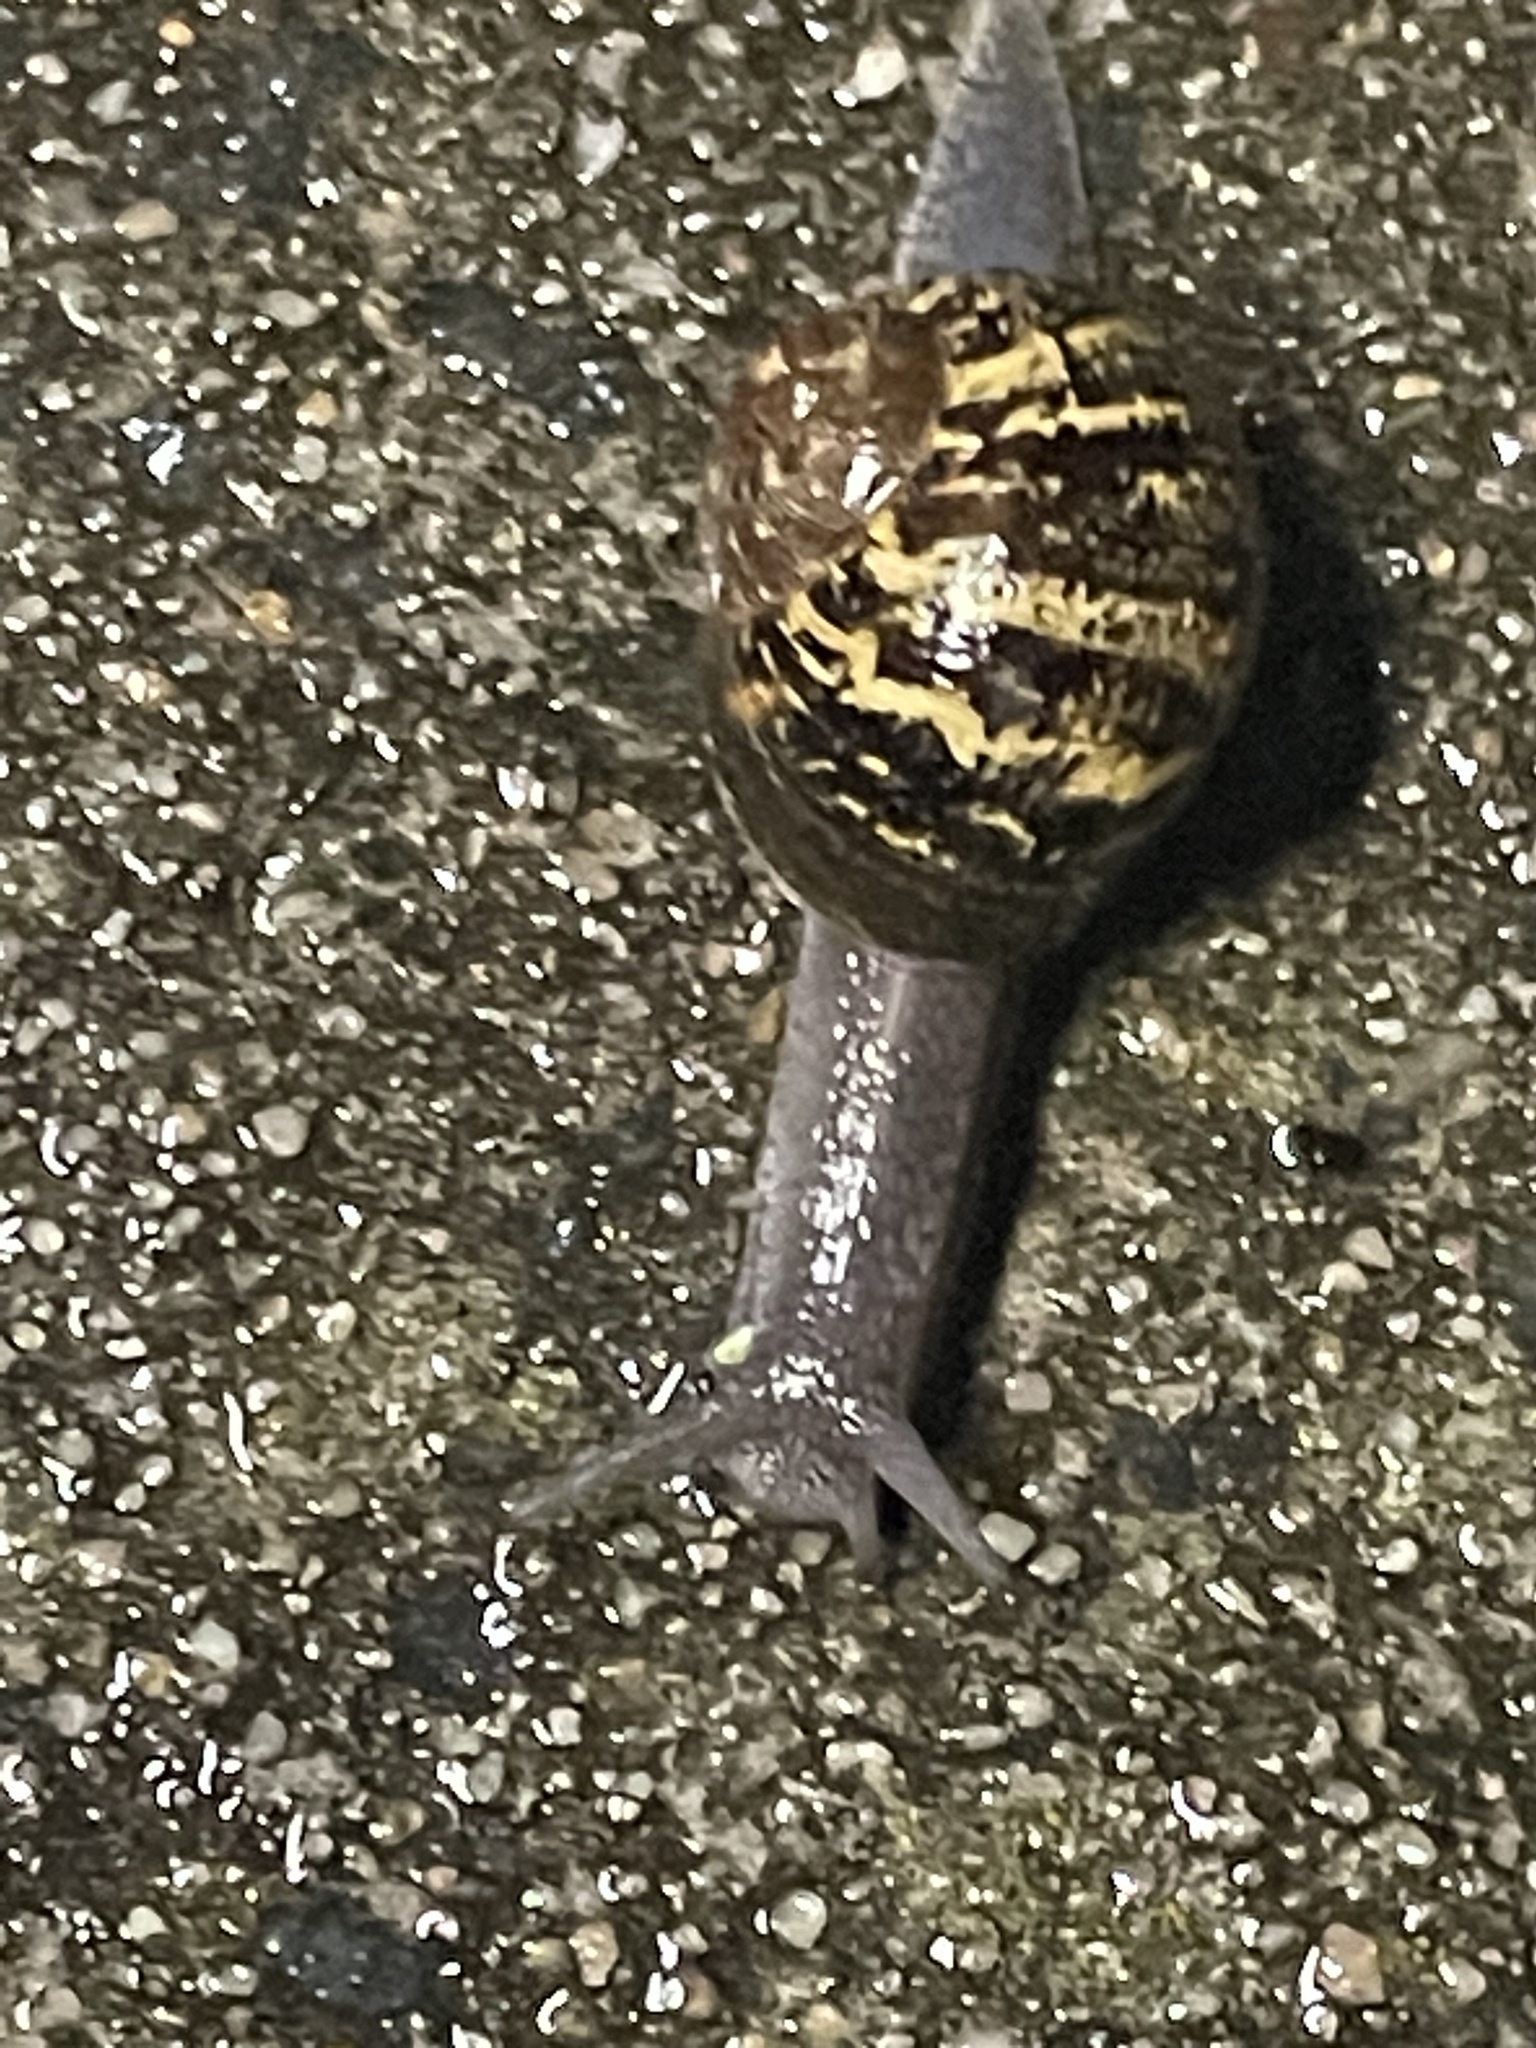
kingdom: Animalia
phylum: Mollusca
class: Gastropoda
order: Stylommatophora
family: Helicidae
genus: Cornu
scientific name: Cornu aspersum
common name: Brown garden snail
